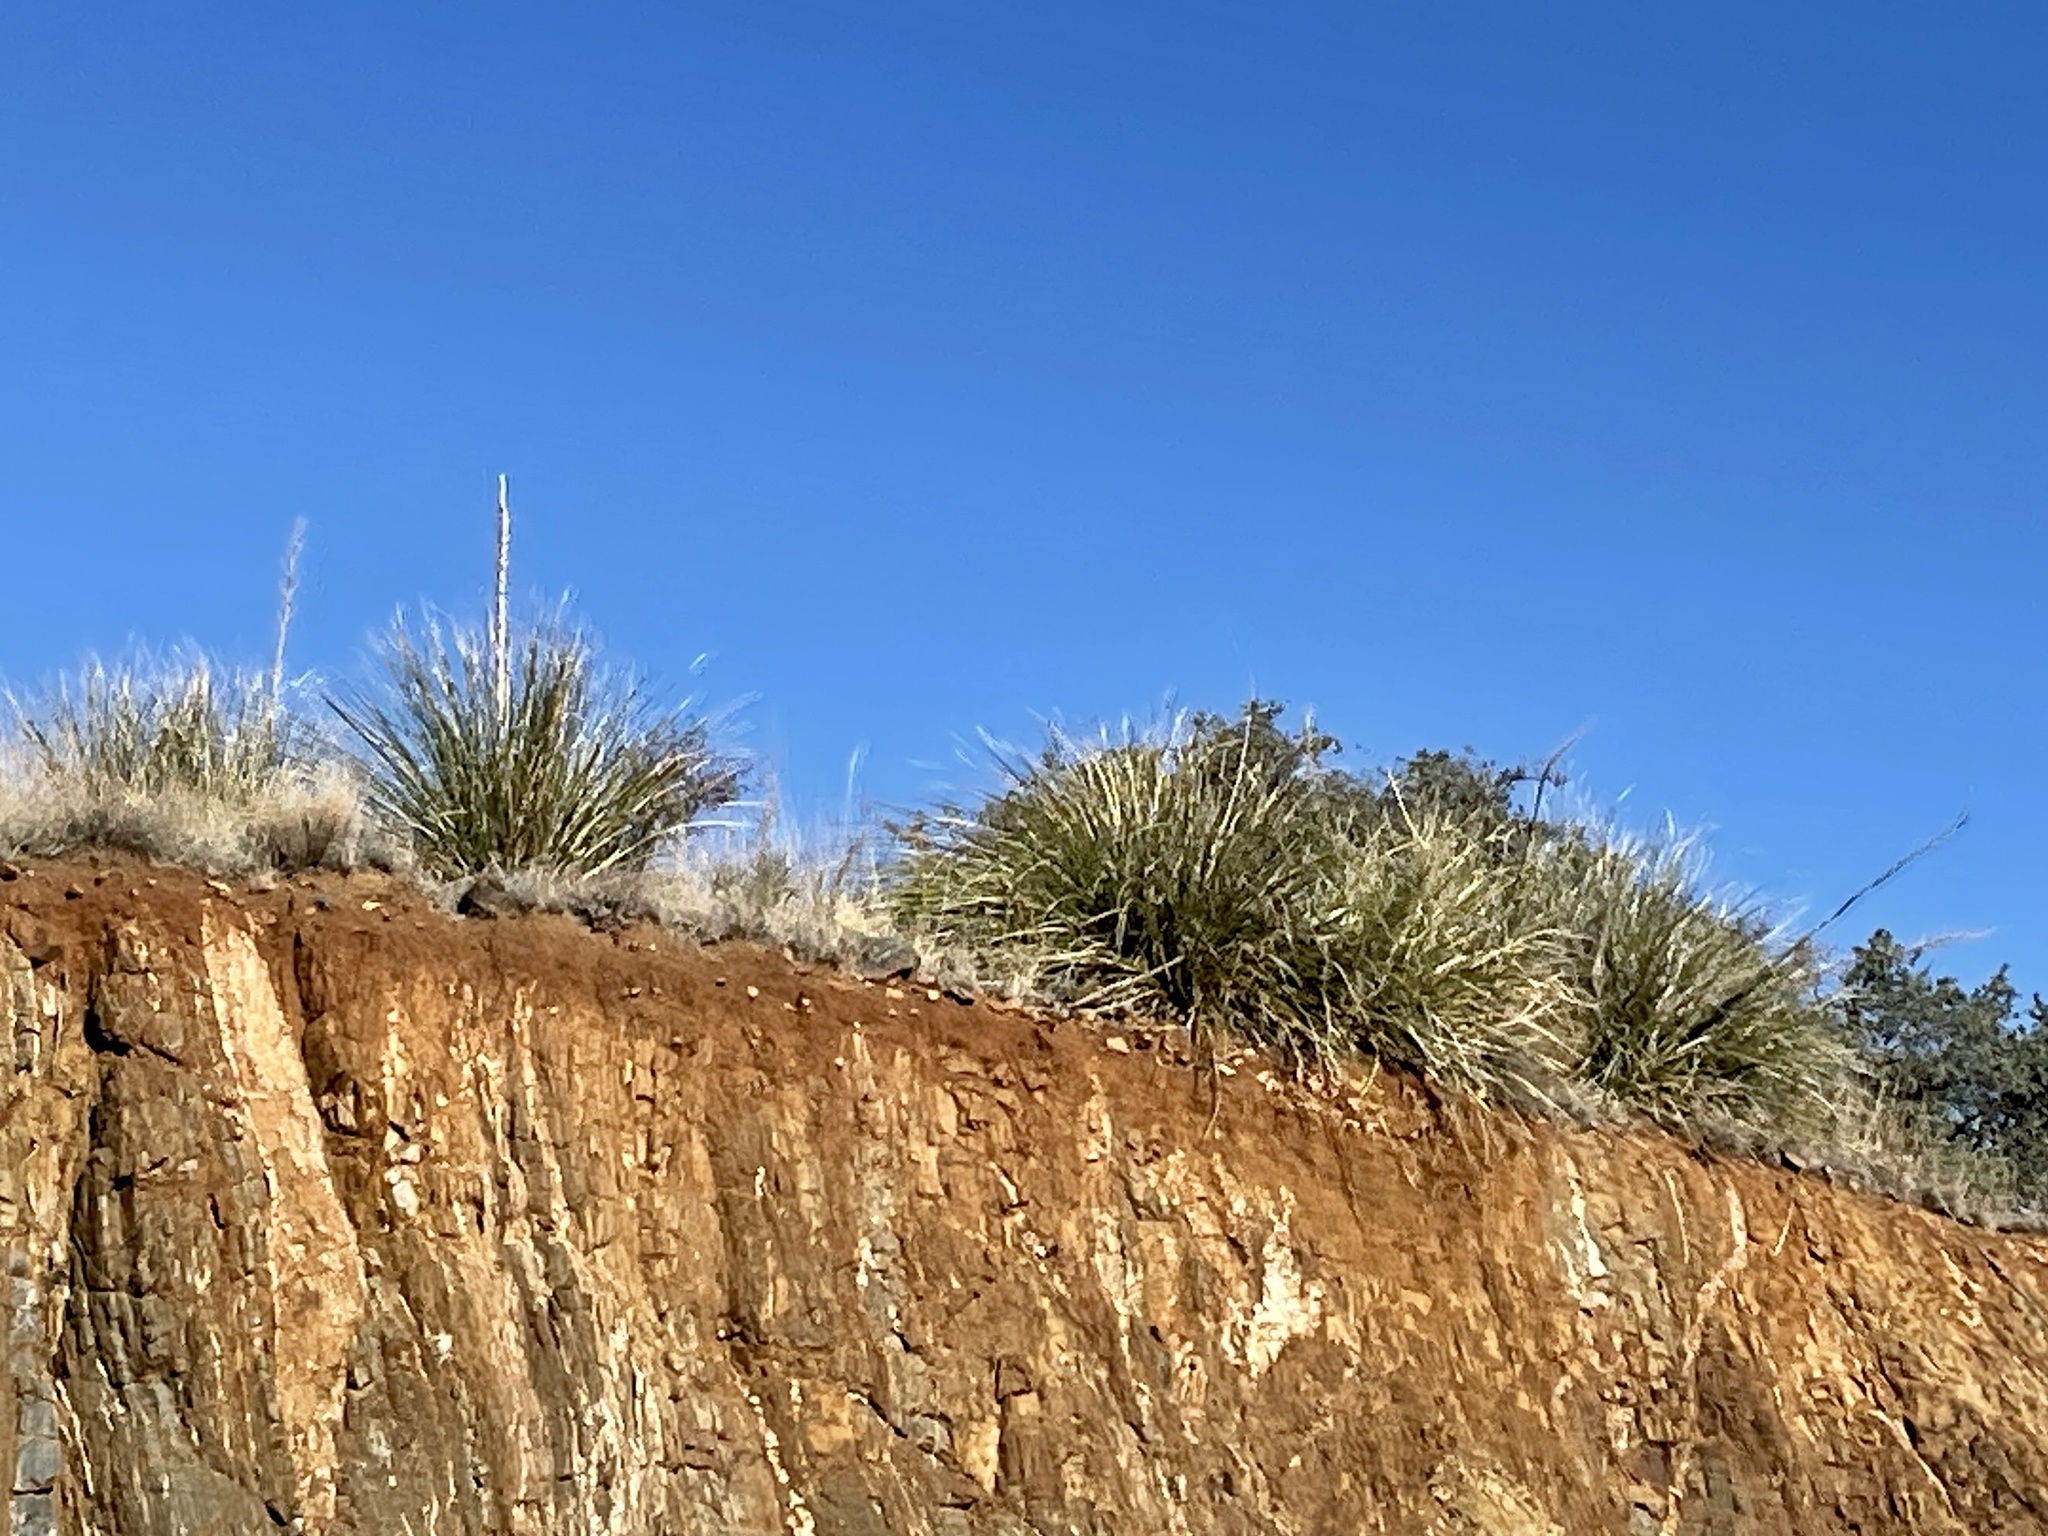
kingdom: Plantae
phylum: Tracheophyta
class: Liliopsida
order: Asparagales
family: Asparagaceae
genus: Nolina
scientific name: Nolina microcarpa
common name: Bear-grass
